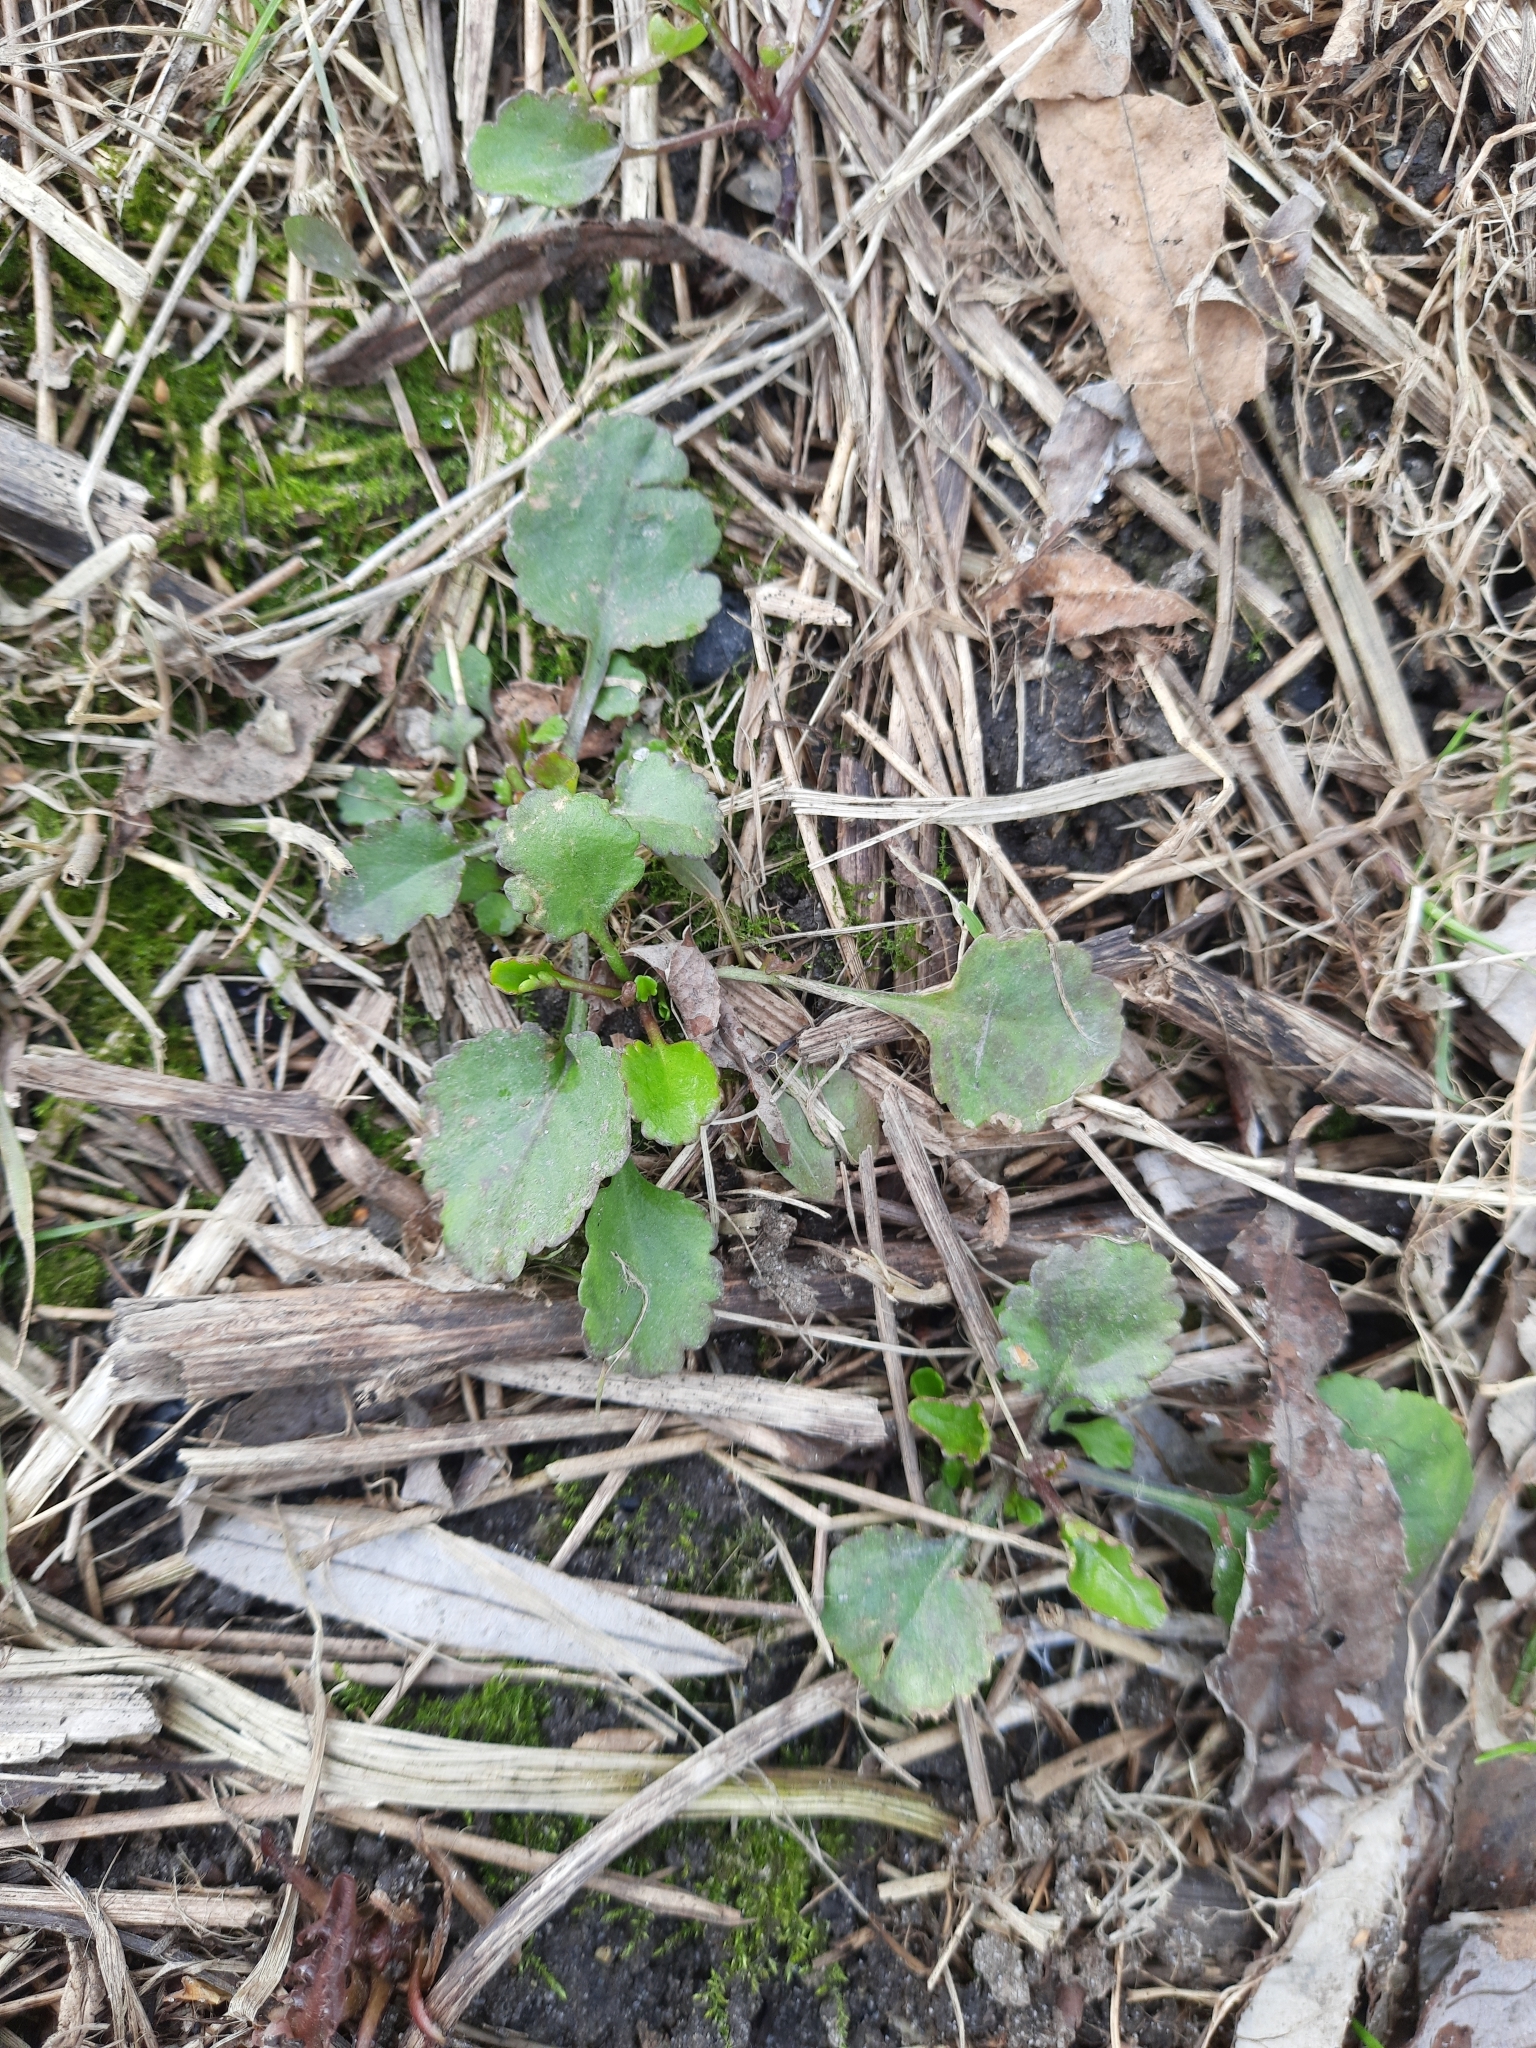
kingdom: Plantae
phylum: Tracheophyta
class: Magnoliopsida
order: Asterales
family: Asteraceae
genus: Leucanthemum
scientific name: Leucanthemum ircutianum
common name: Daisy
